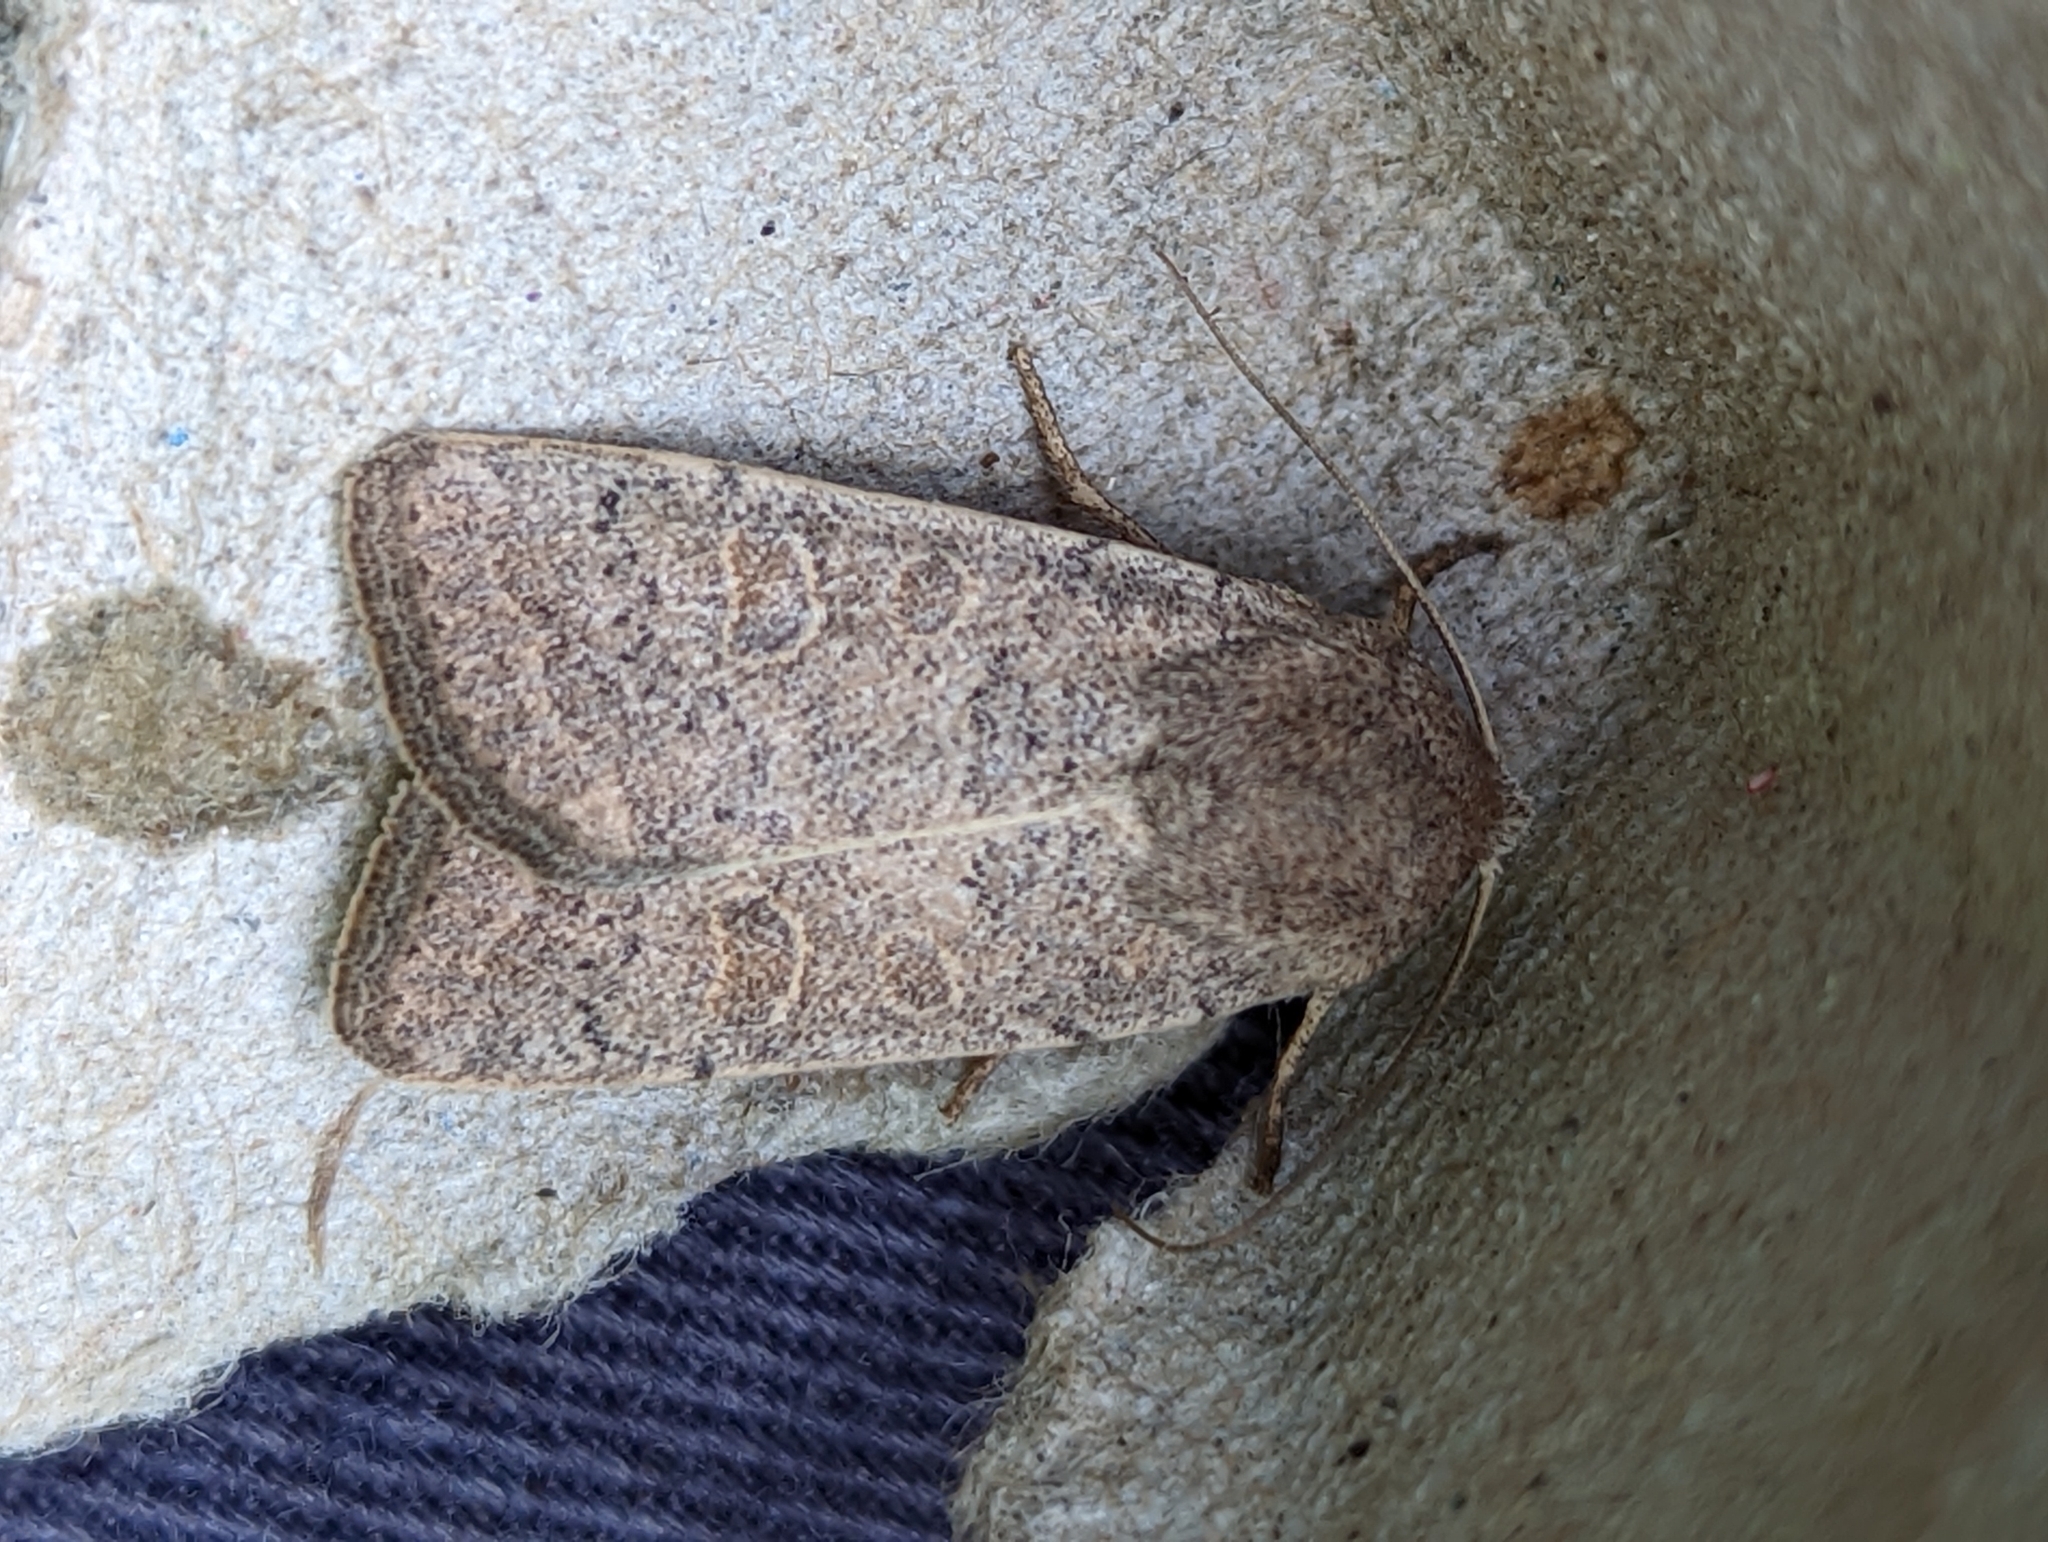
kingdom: Animalia
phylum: Arthropoda
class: Insecta
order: Lepidoptera
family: Noctuidae
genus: Hoplodrina
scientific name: Hoplodrina ambigua
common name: Vine's rustic
